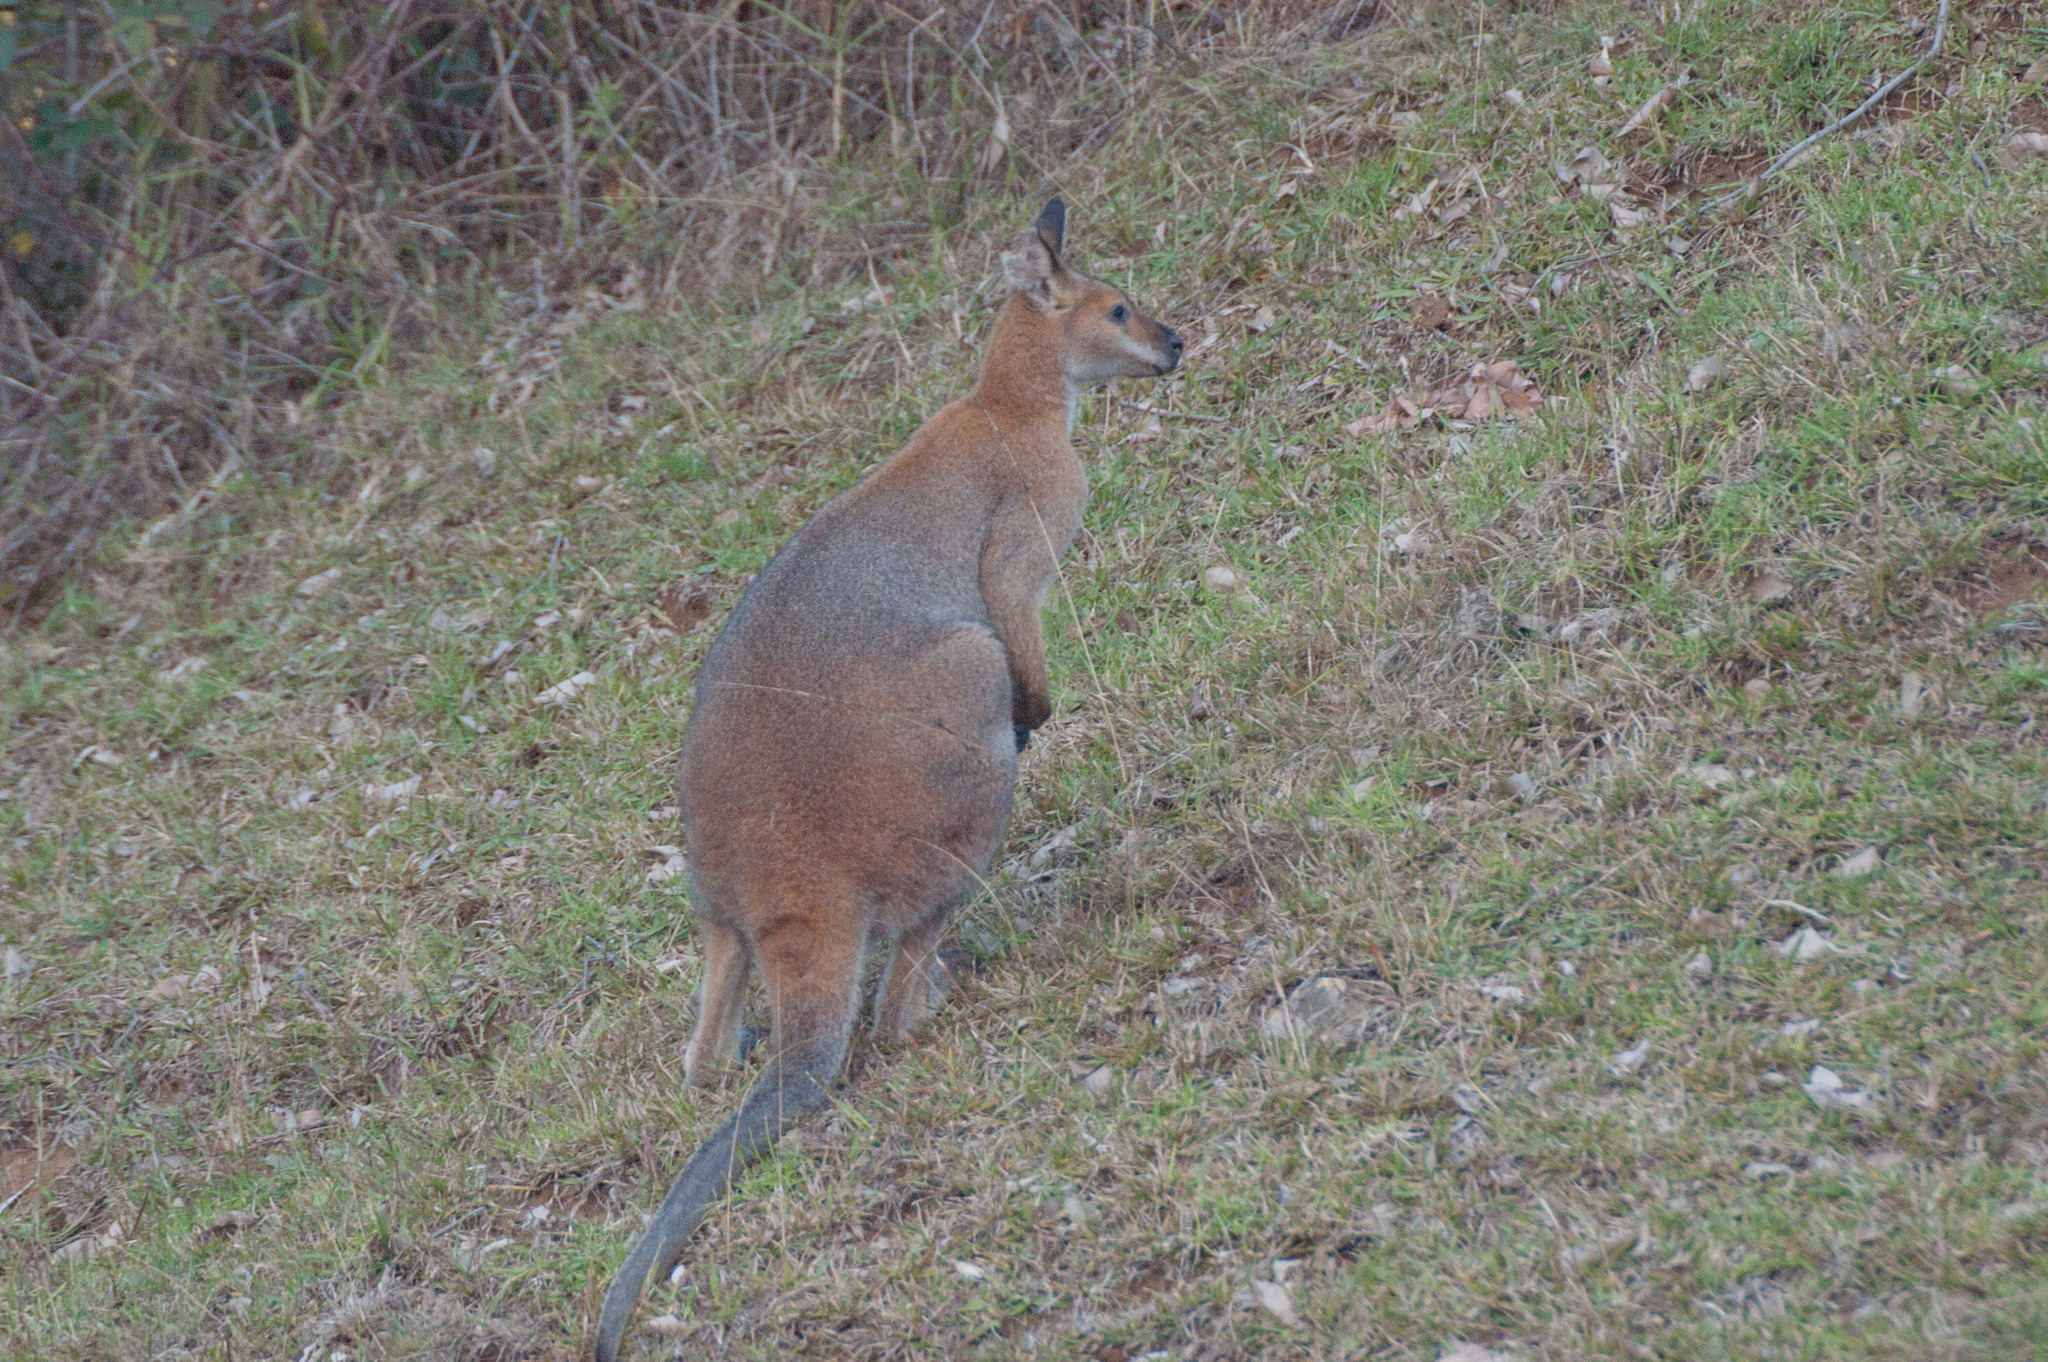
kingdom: Animalia
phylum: Chordata
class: Mammalia
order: Diprotodontia
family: Macropodidae
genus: Notamacropus
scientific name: Notamacropus rufogriseus
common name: Red-necked wallaby
